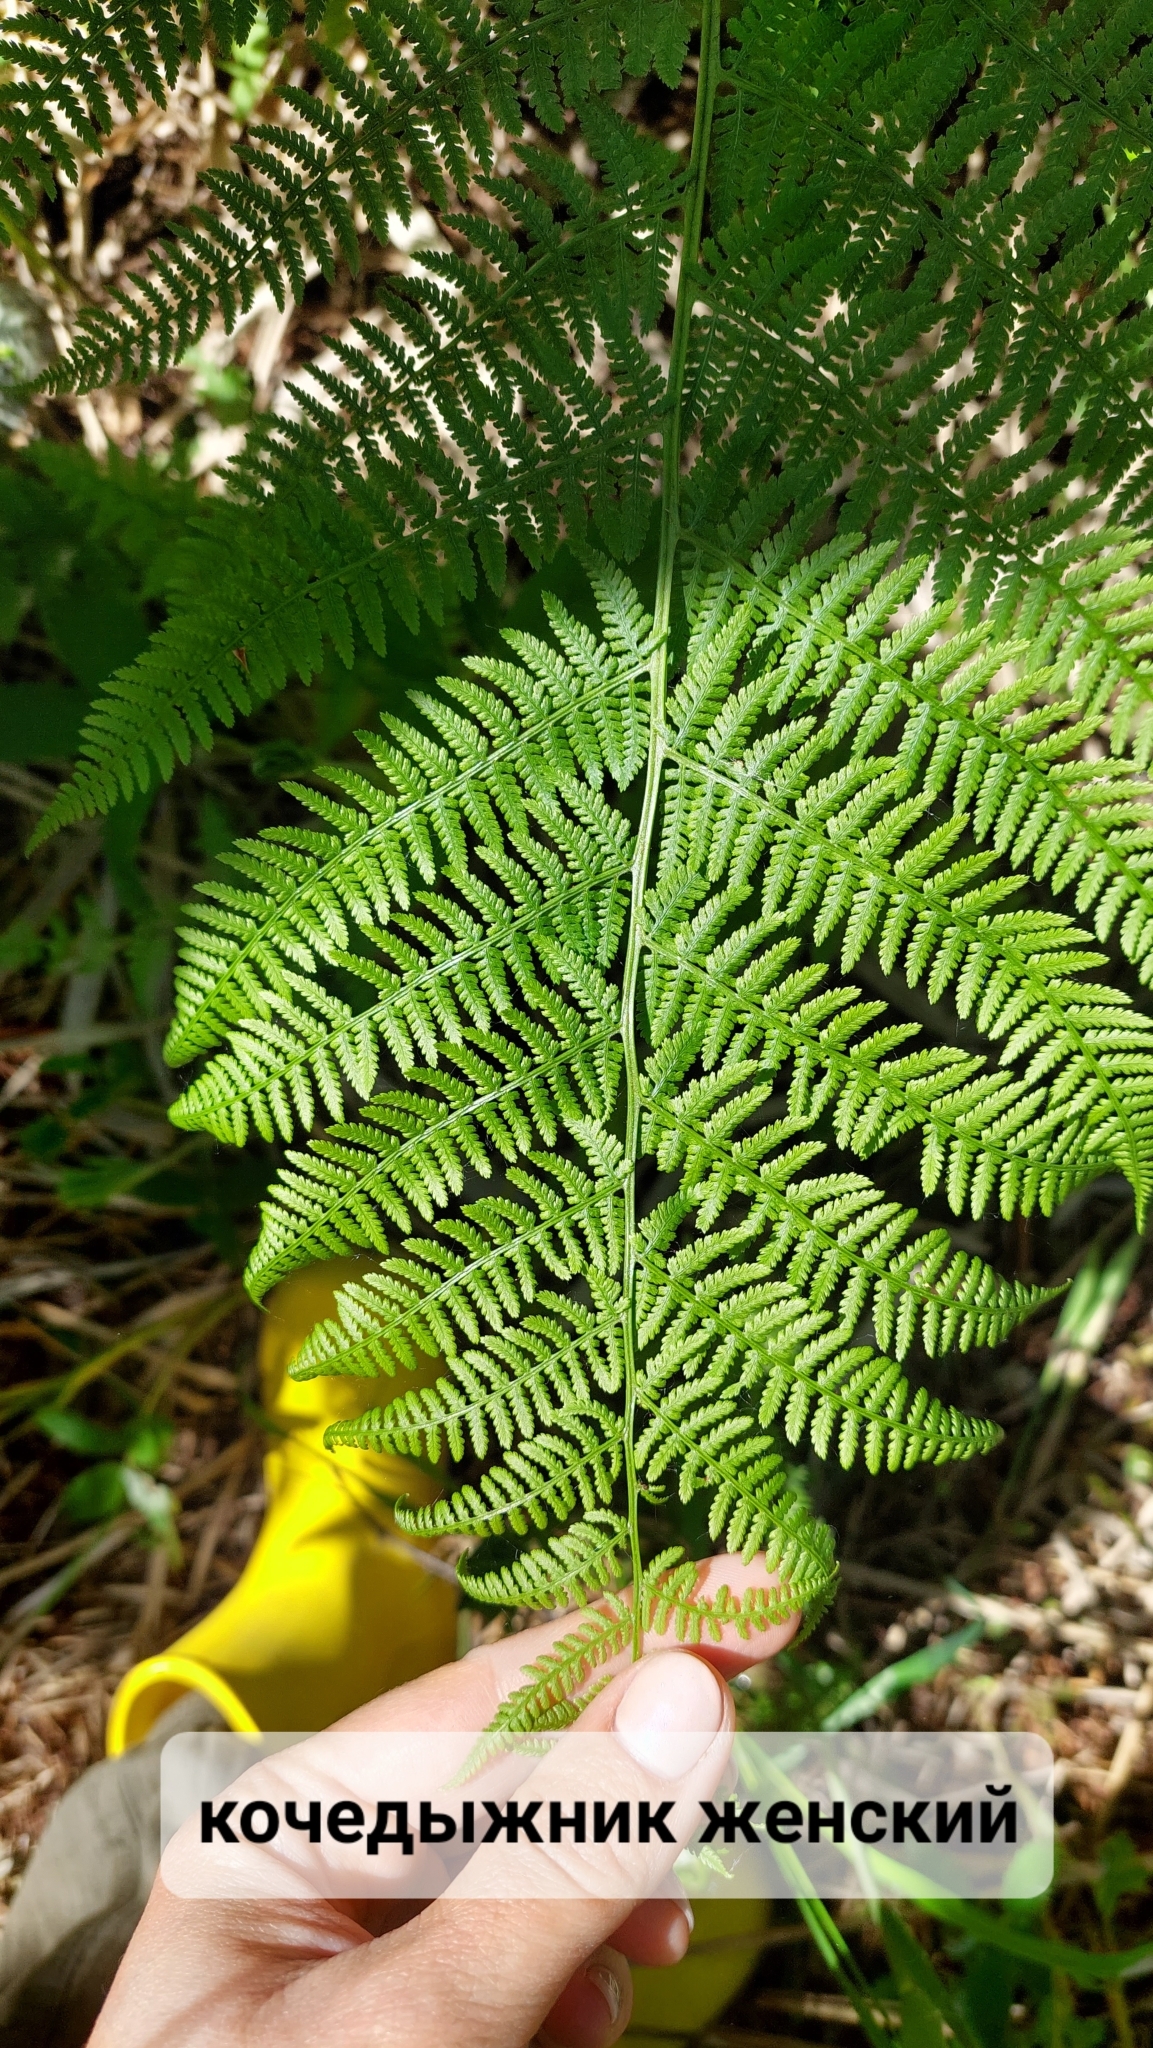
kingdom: Plantae
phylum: Tracheophyta
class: Polypodiopsida
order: Polypodiales
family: Athyriaceae
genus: Athyrium
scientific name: Athyrium filix-femina
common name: Lady fern
